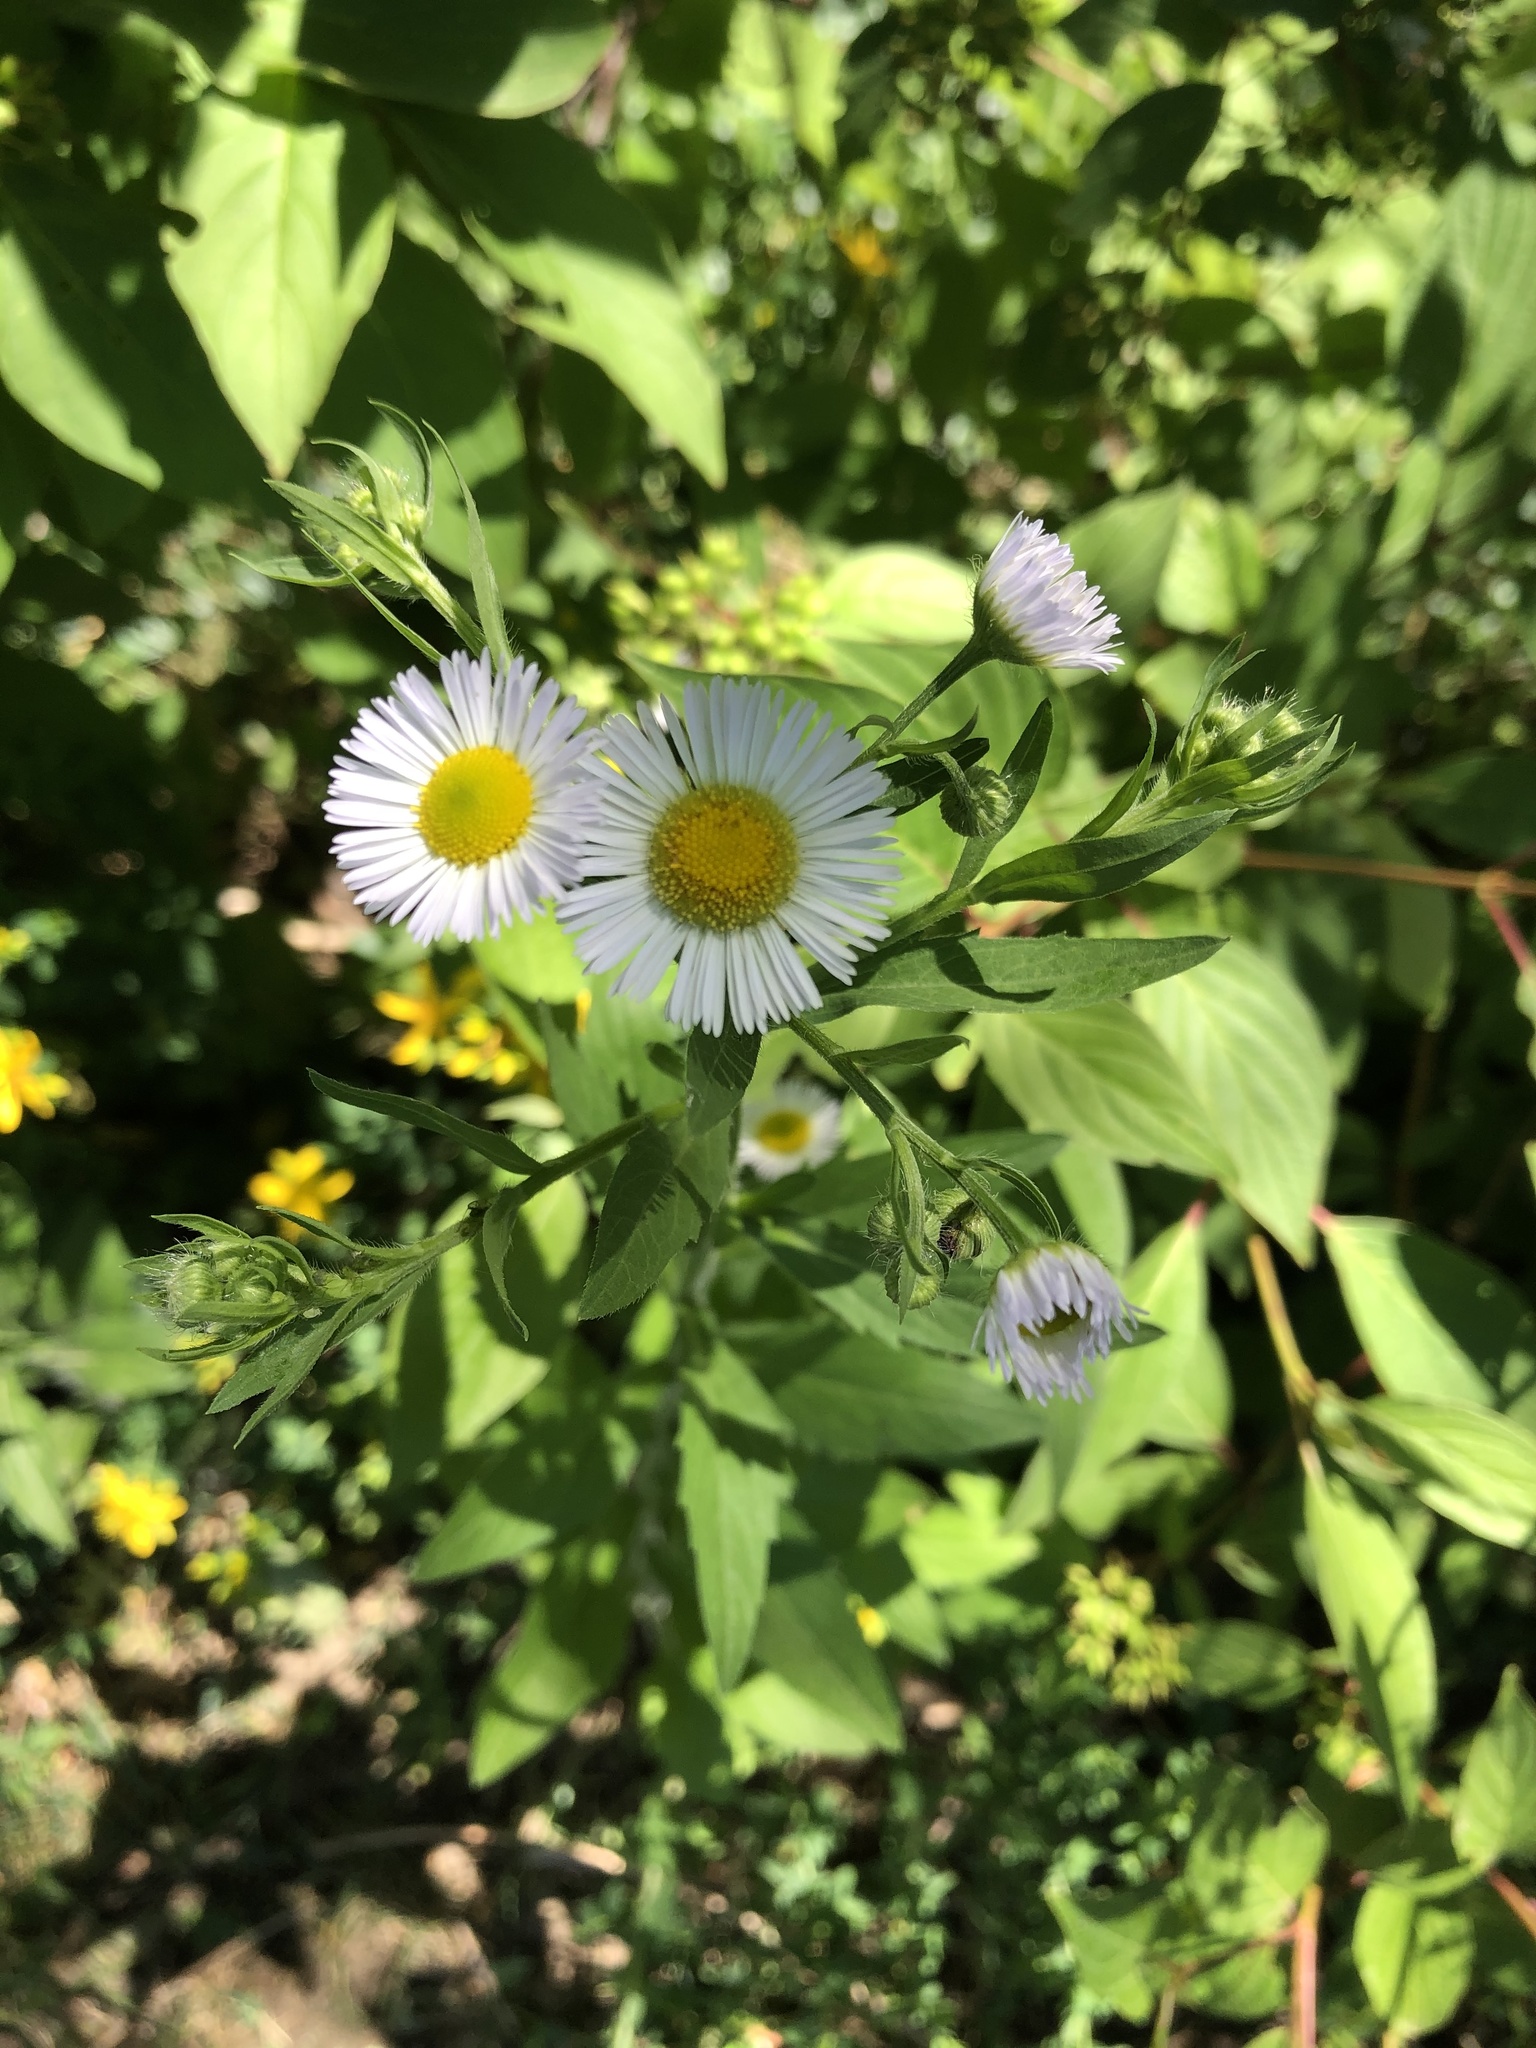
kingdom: Plantae
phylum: Tracheophyta
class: Magnoliopsida
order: Asterales
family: Asteraceae
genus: Erigeron
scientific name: Erigeron annuus
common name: Tall fleabane
